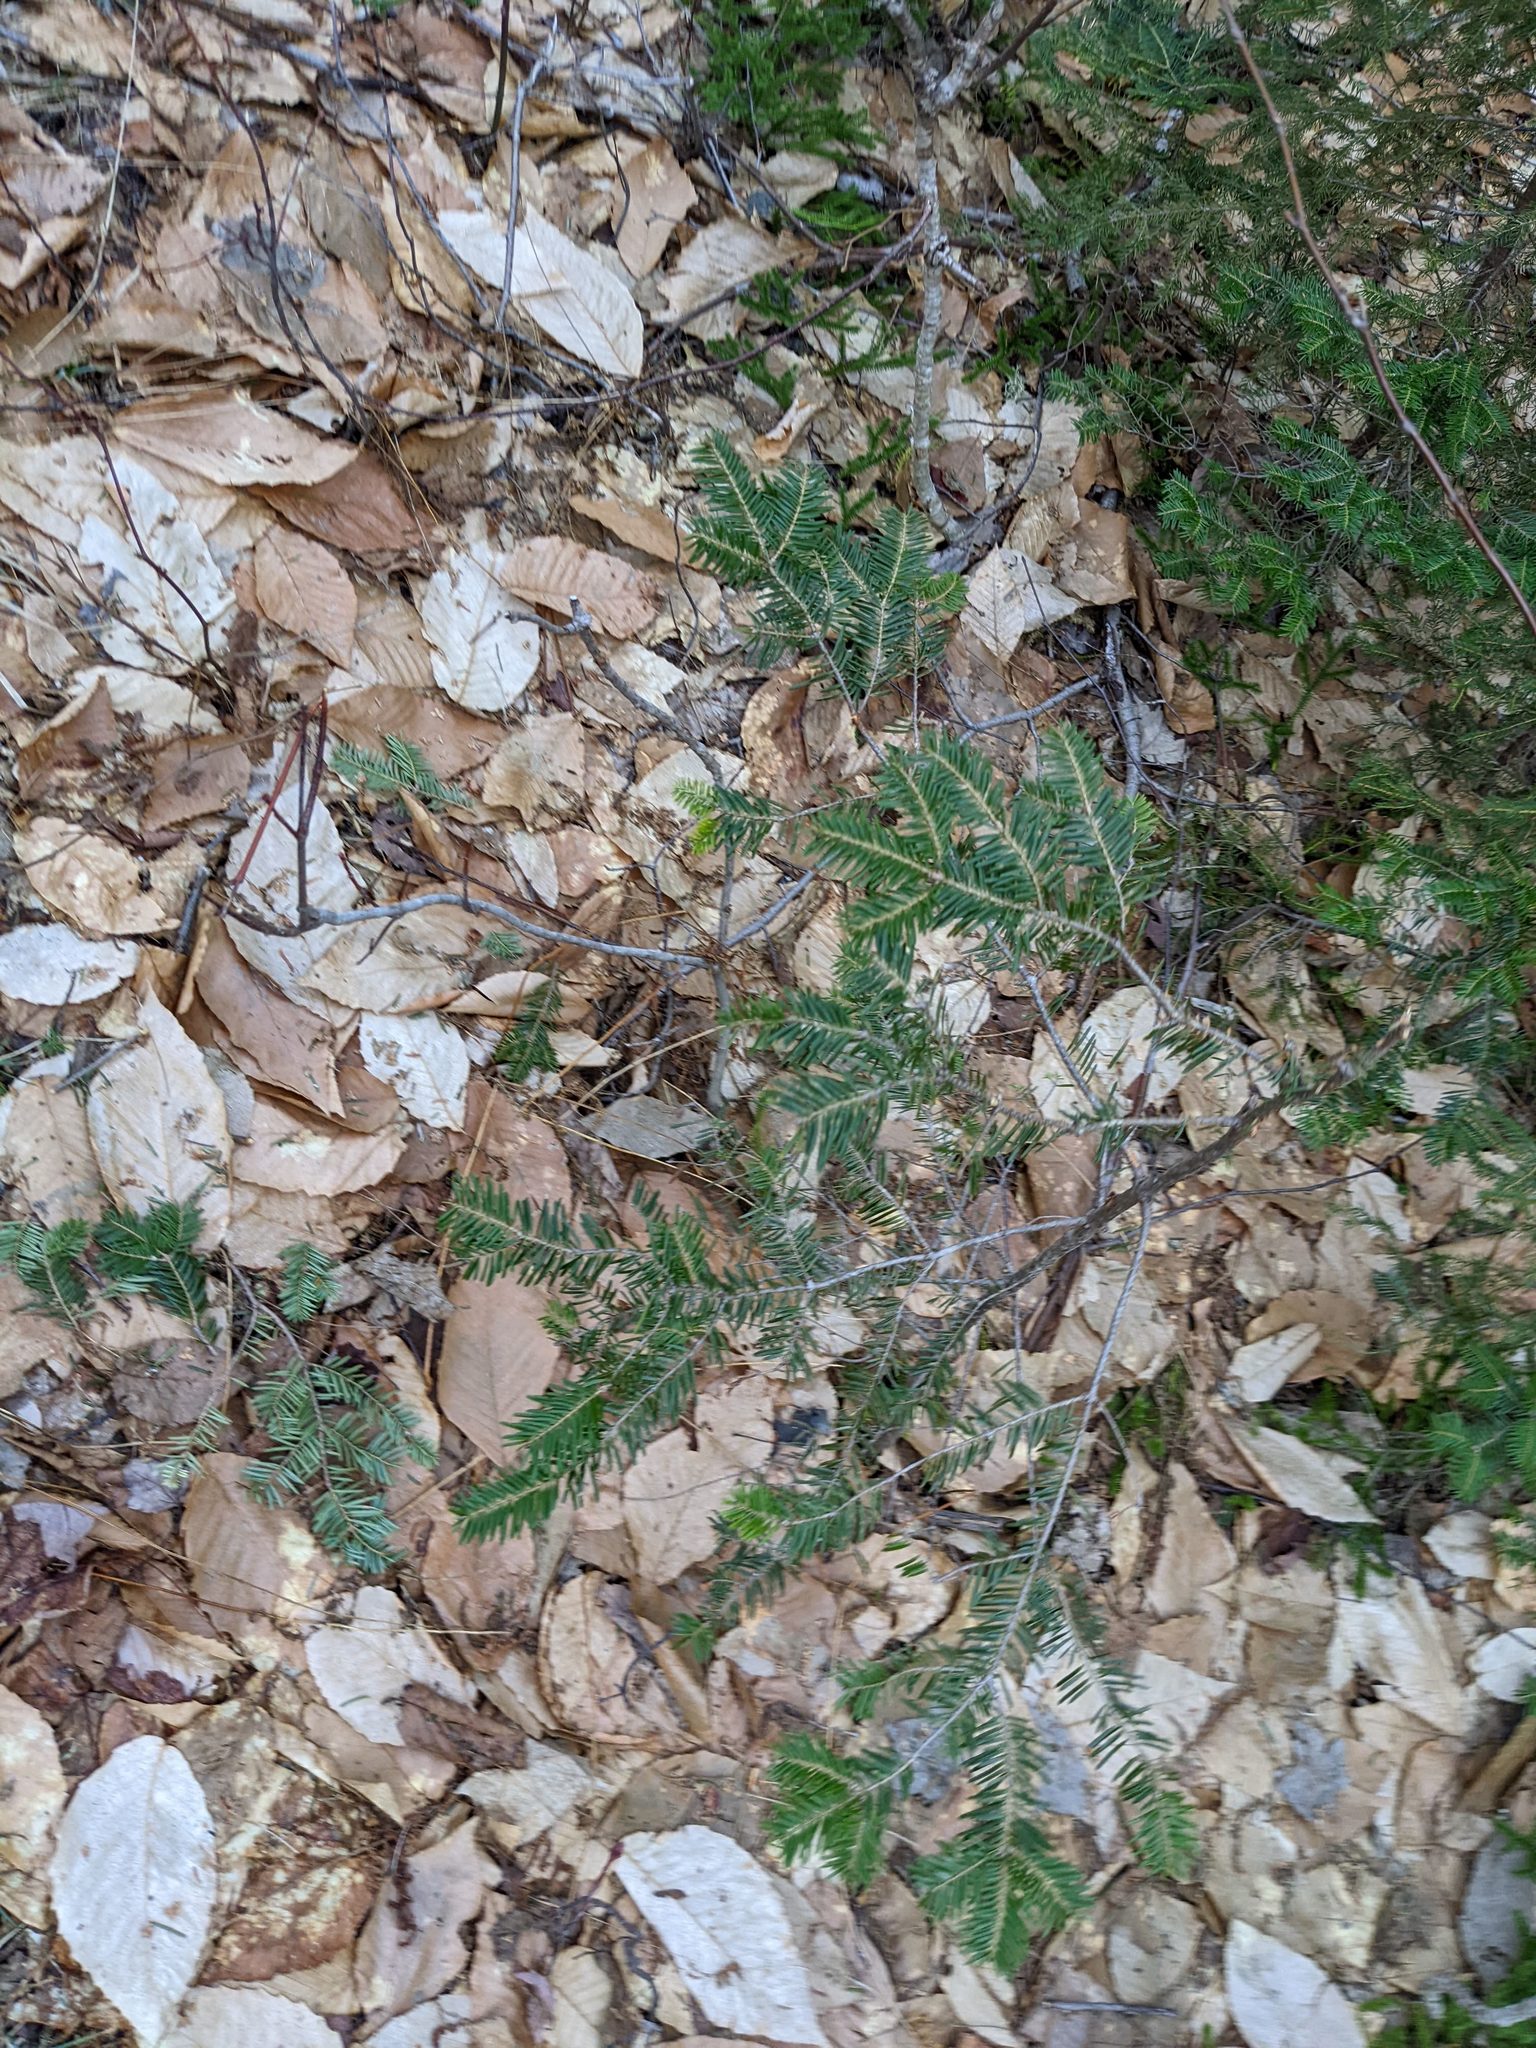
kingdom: Plantae
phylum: Tracheophyta
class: Magnoliopsida
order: Fagales
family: Fagaceae
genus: Fagus
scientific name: Fagus grandifolia
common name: American beech
